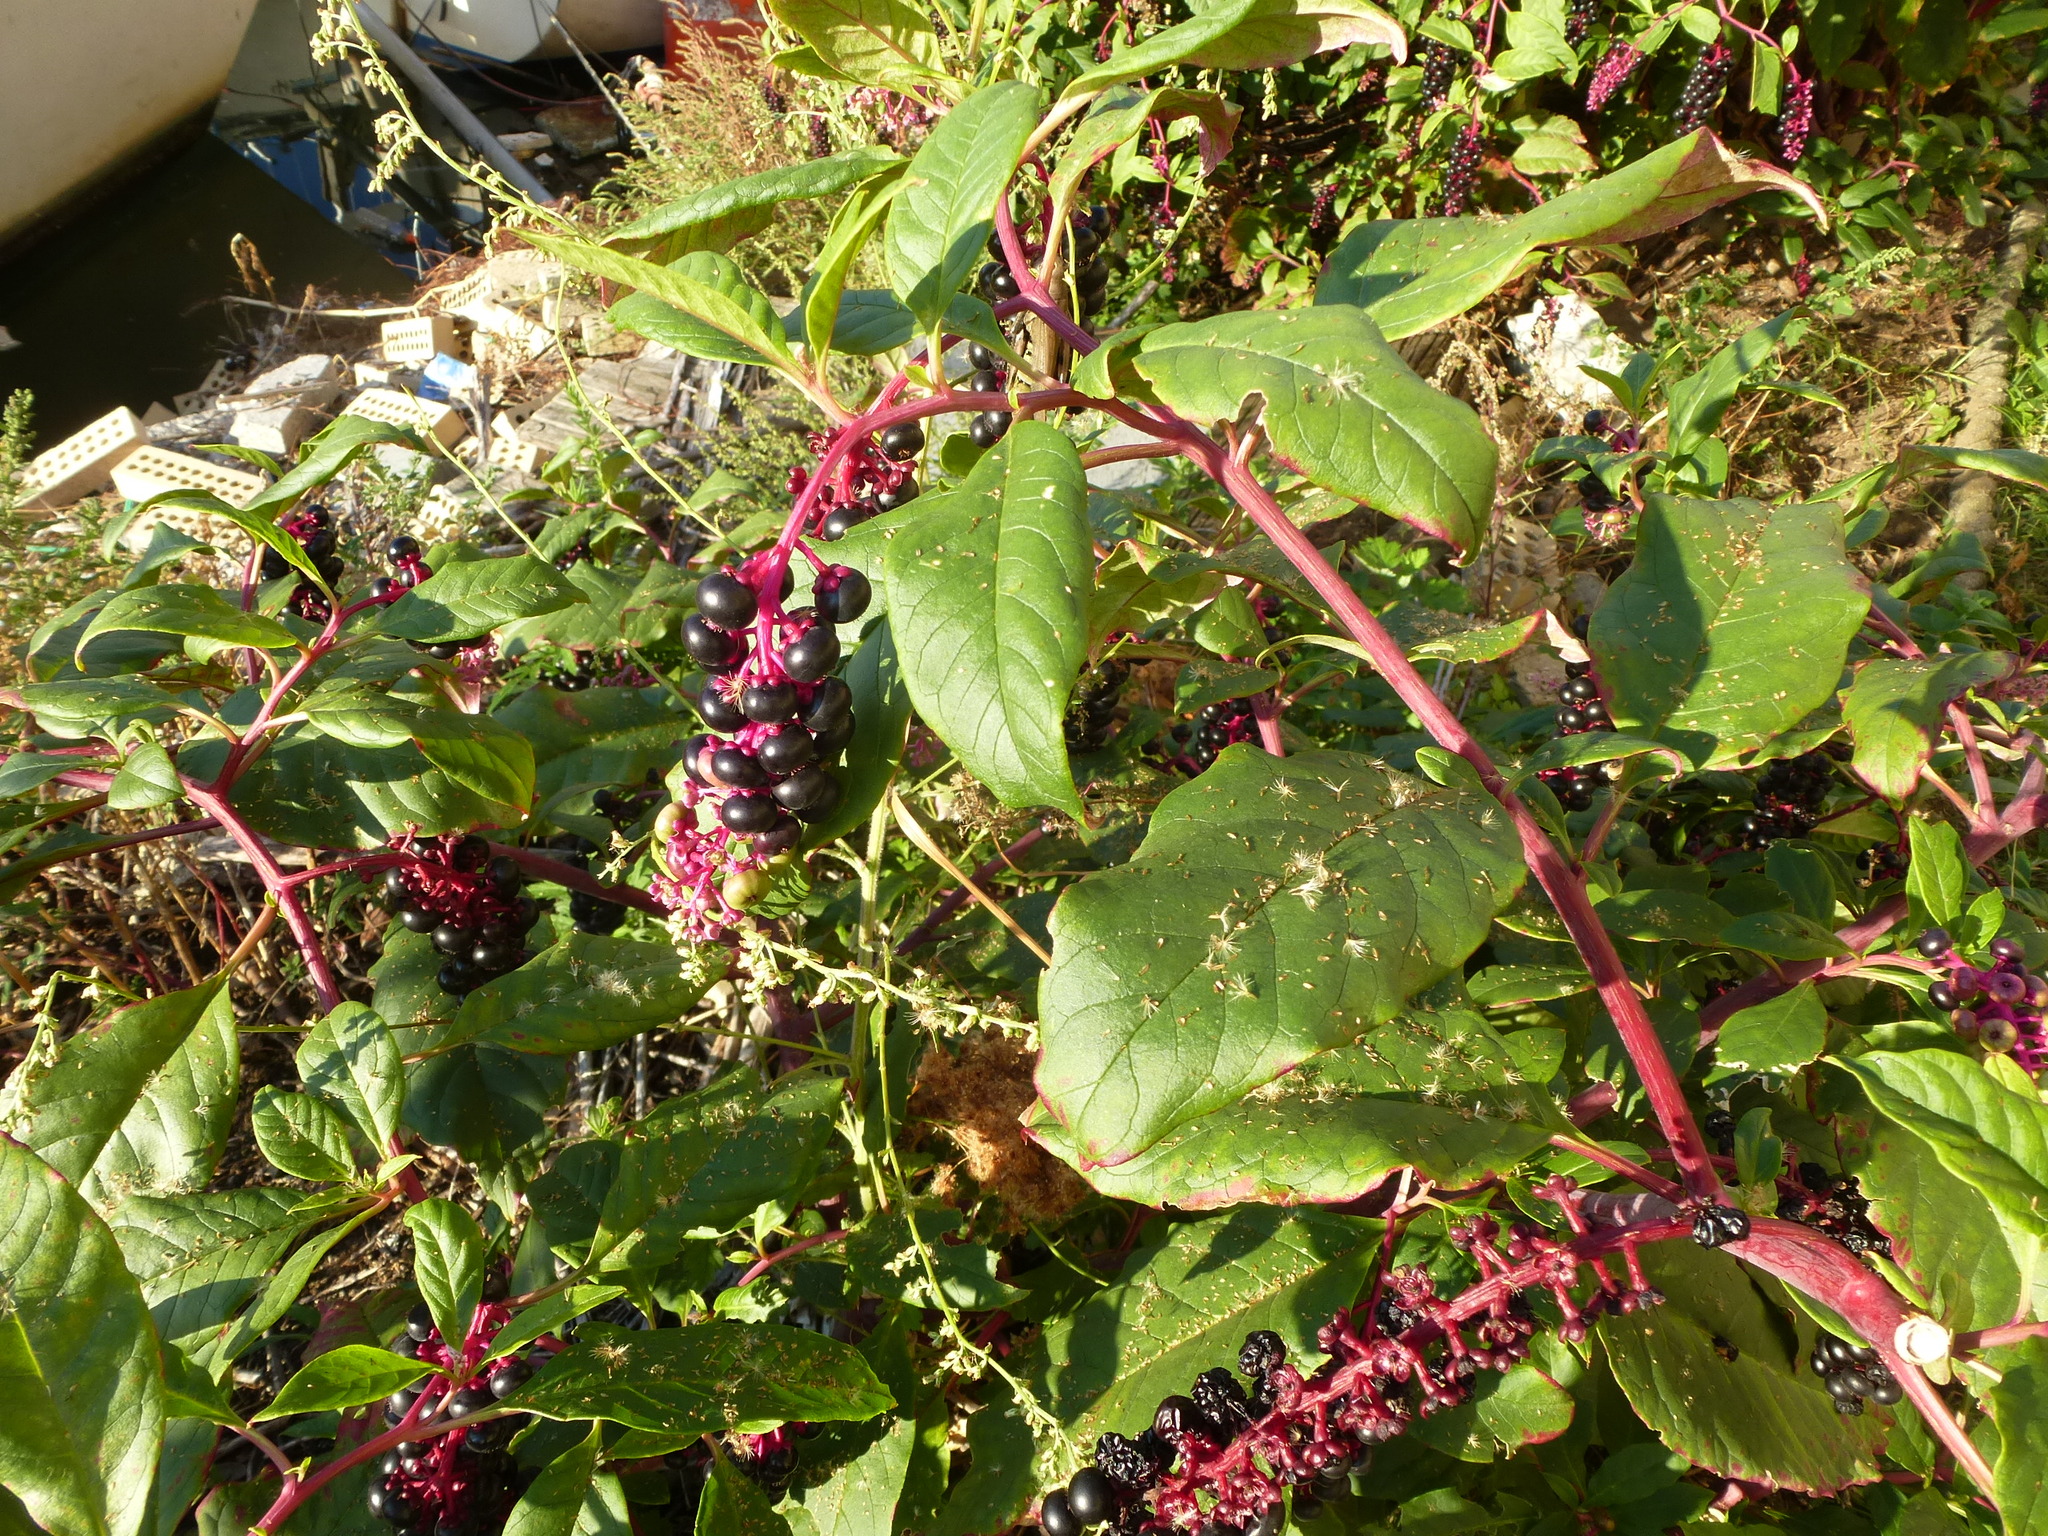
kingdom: Plantae
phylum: Tracheophyta
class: Magnoliopsida
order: Caryophyllales
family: Phytolaccaceae
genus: Phytolacca
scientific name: Phytolacca americana
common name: American pokeweed
